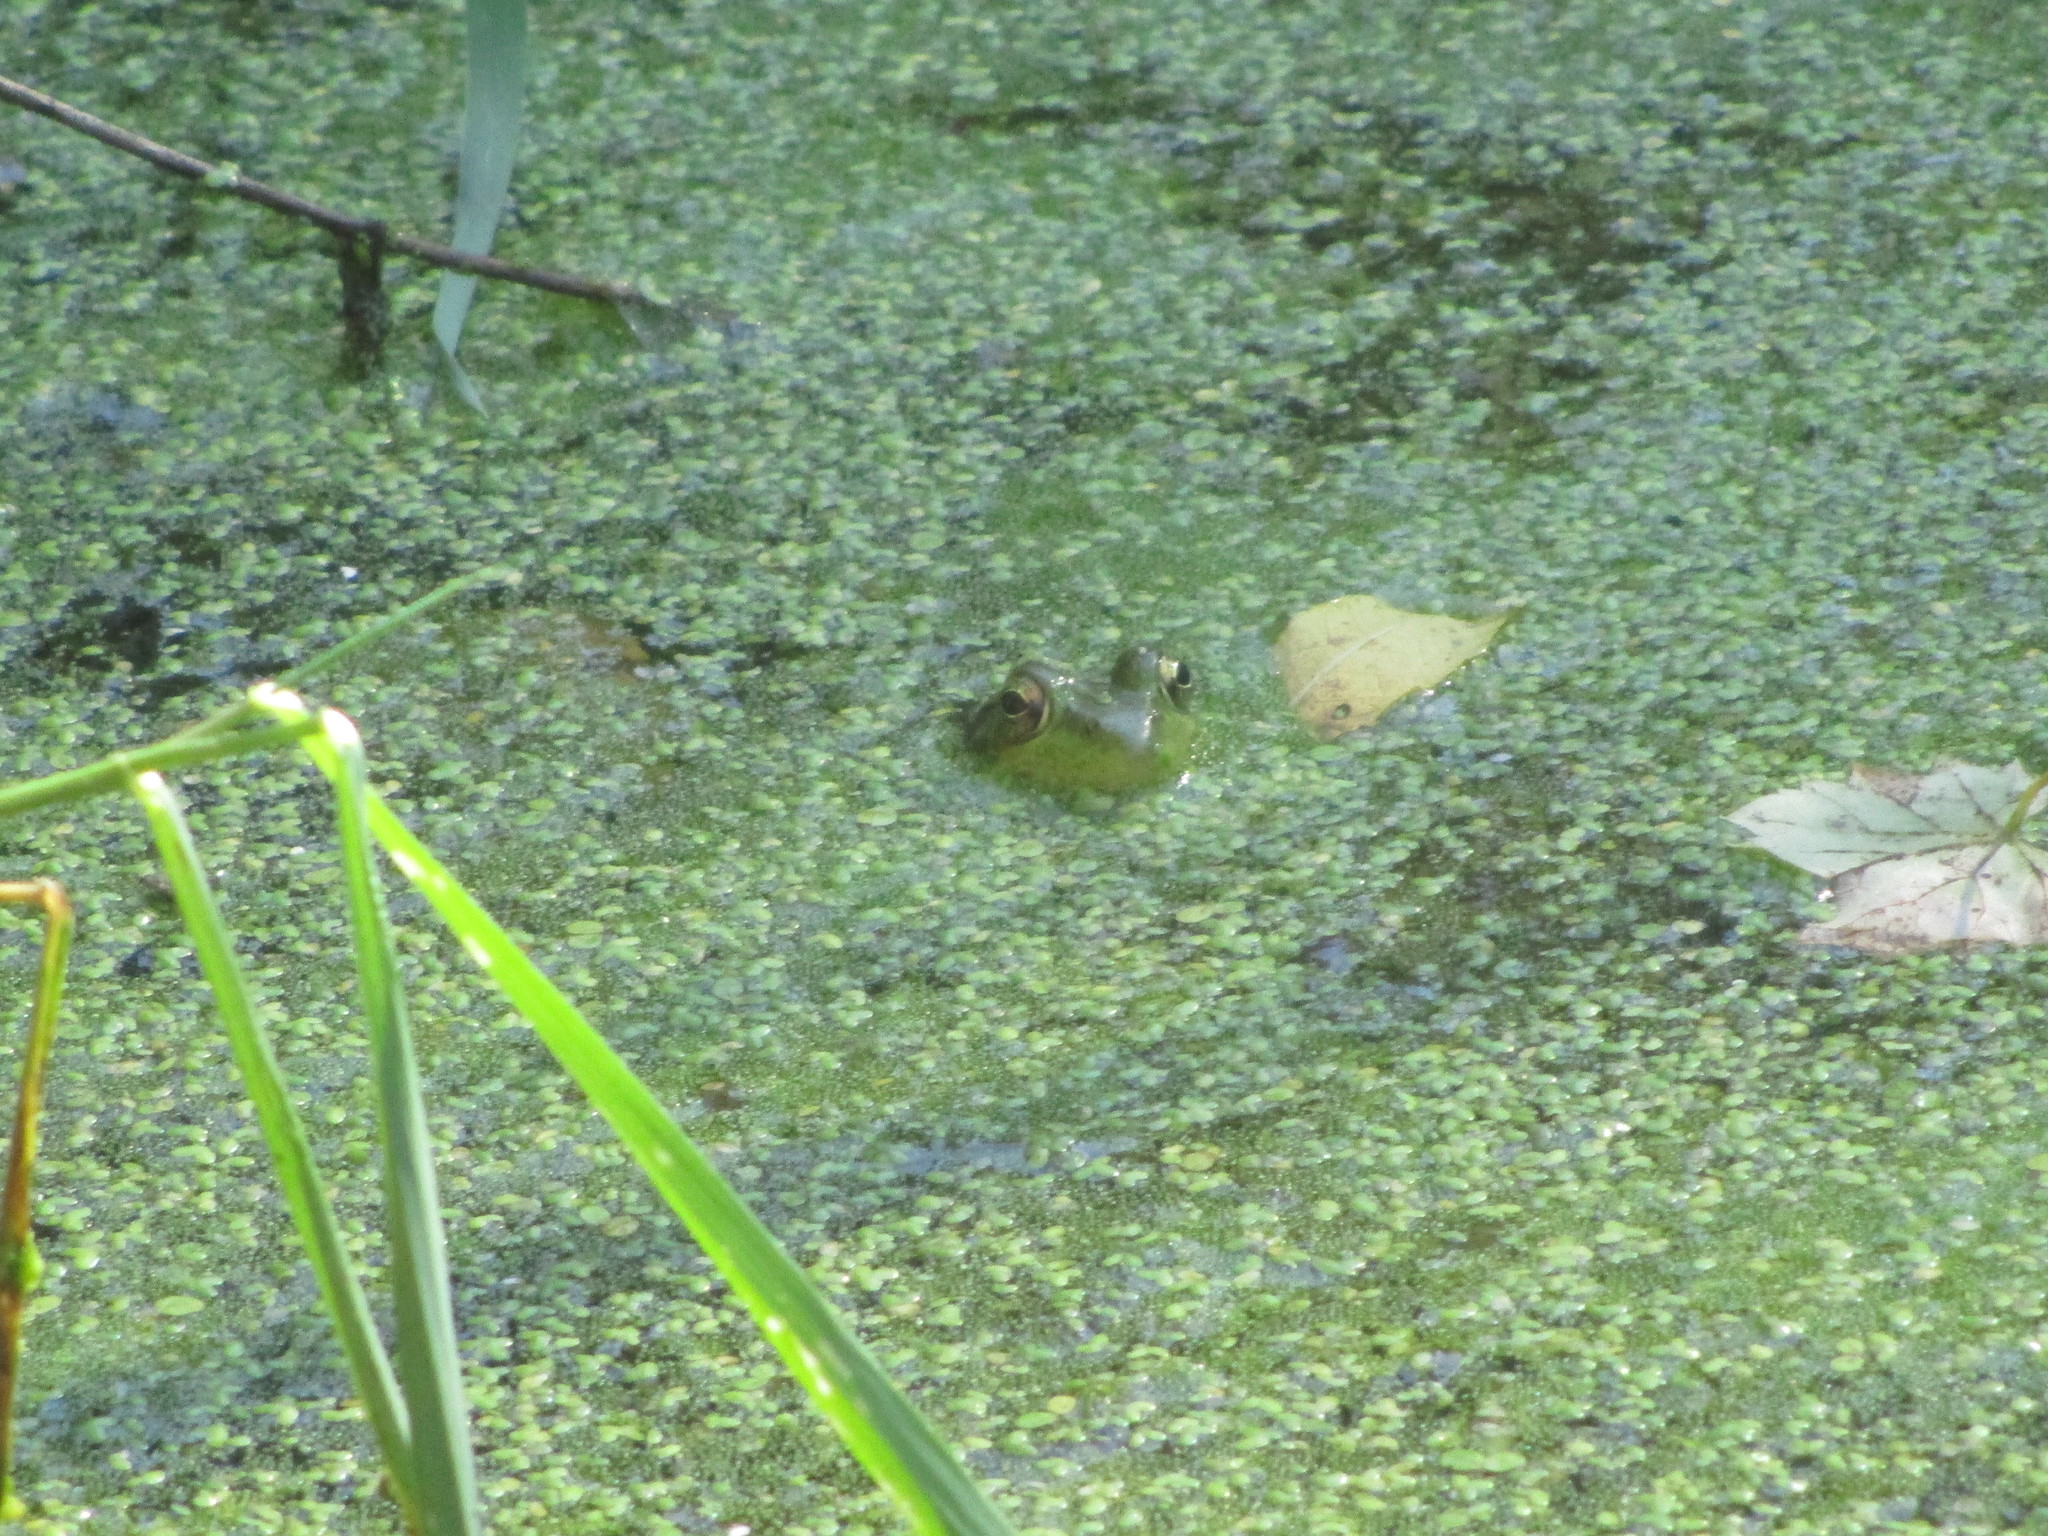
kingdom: Animalia
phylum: Chordata
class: Amphibia
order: Anura
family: Ranidae
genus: Lithobates
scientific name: Lithobates clamitans
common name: Green frog
